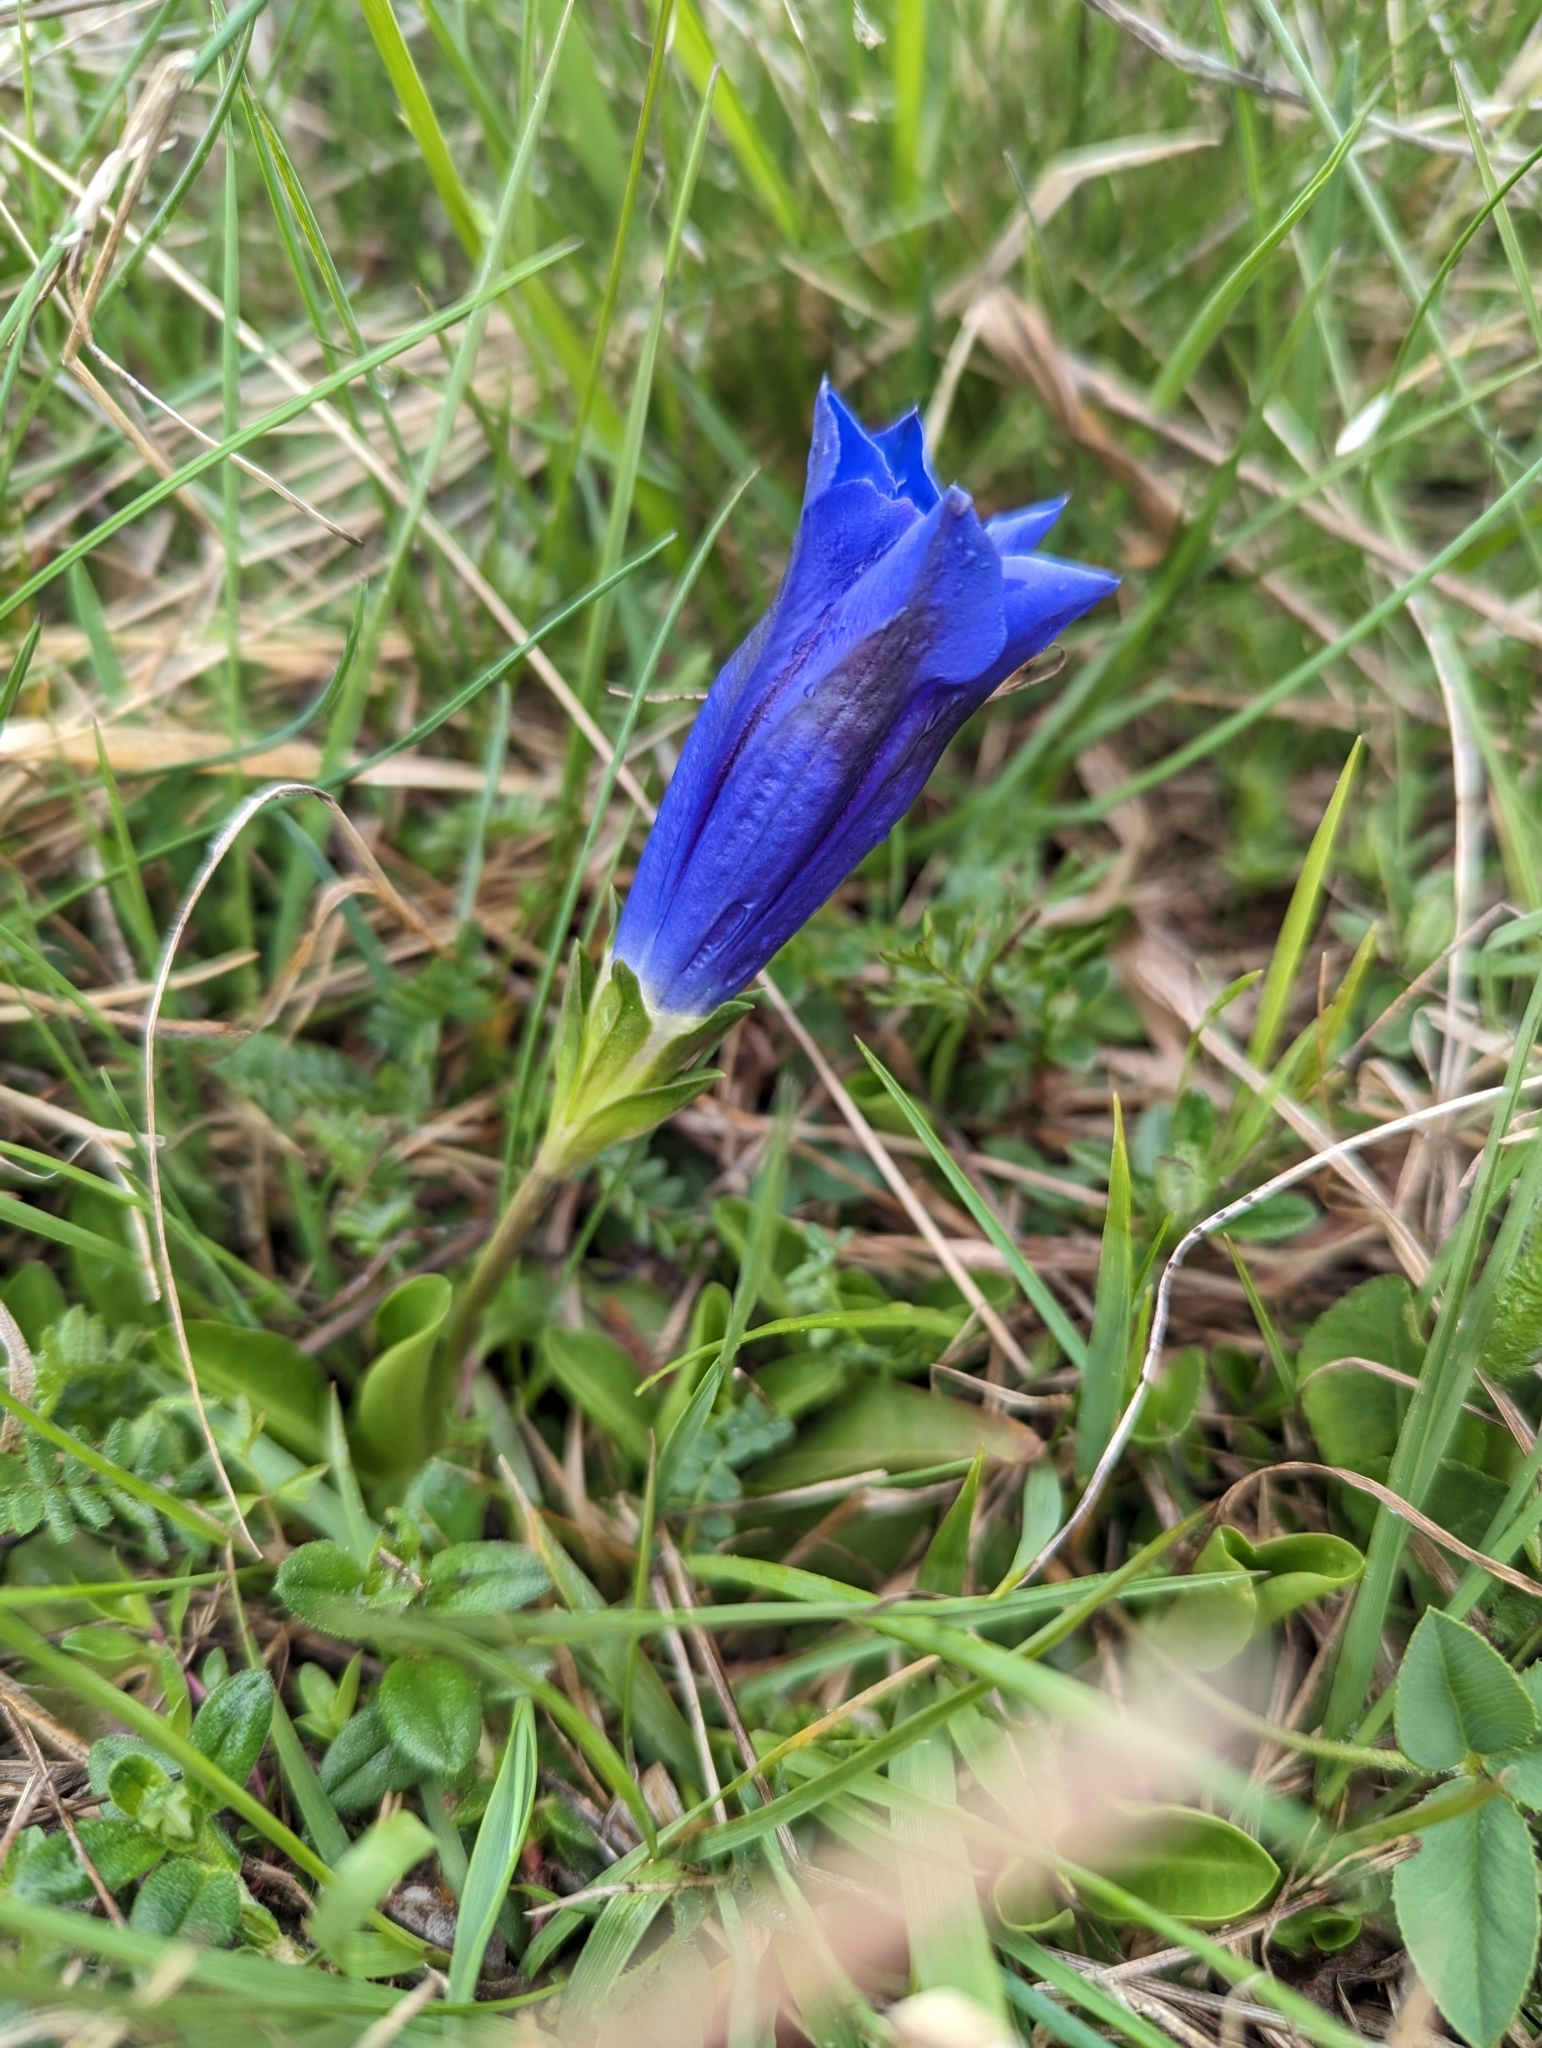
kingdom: Plantae
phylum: Tracheophyta
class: Magnoliopsida
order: Gentianales
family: Gentianaceae
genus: Gentiana
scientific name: Gentiana acaulis
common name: Trumpet gentian
